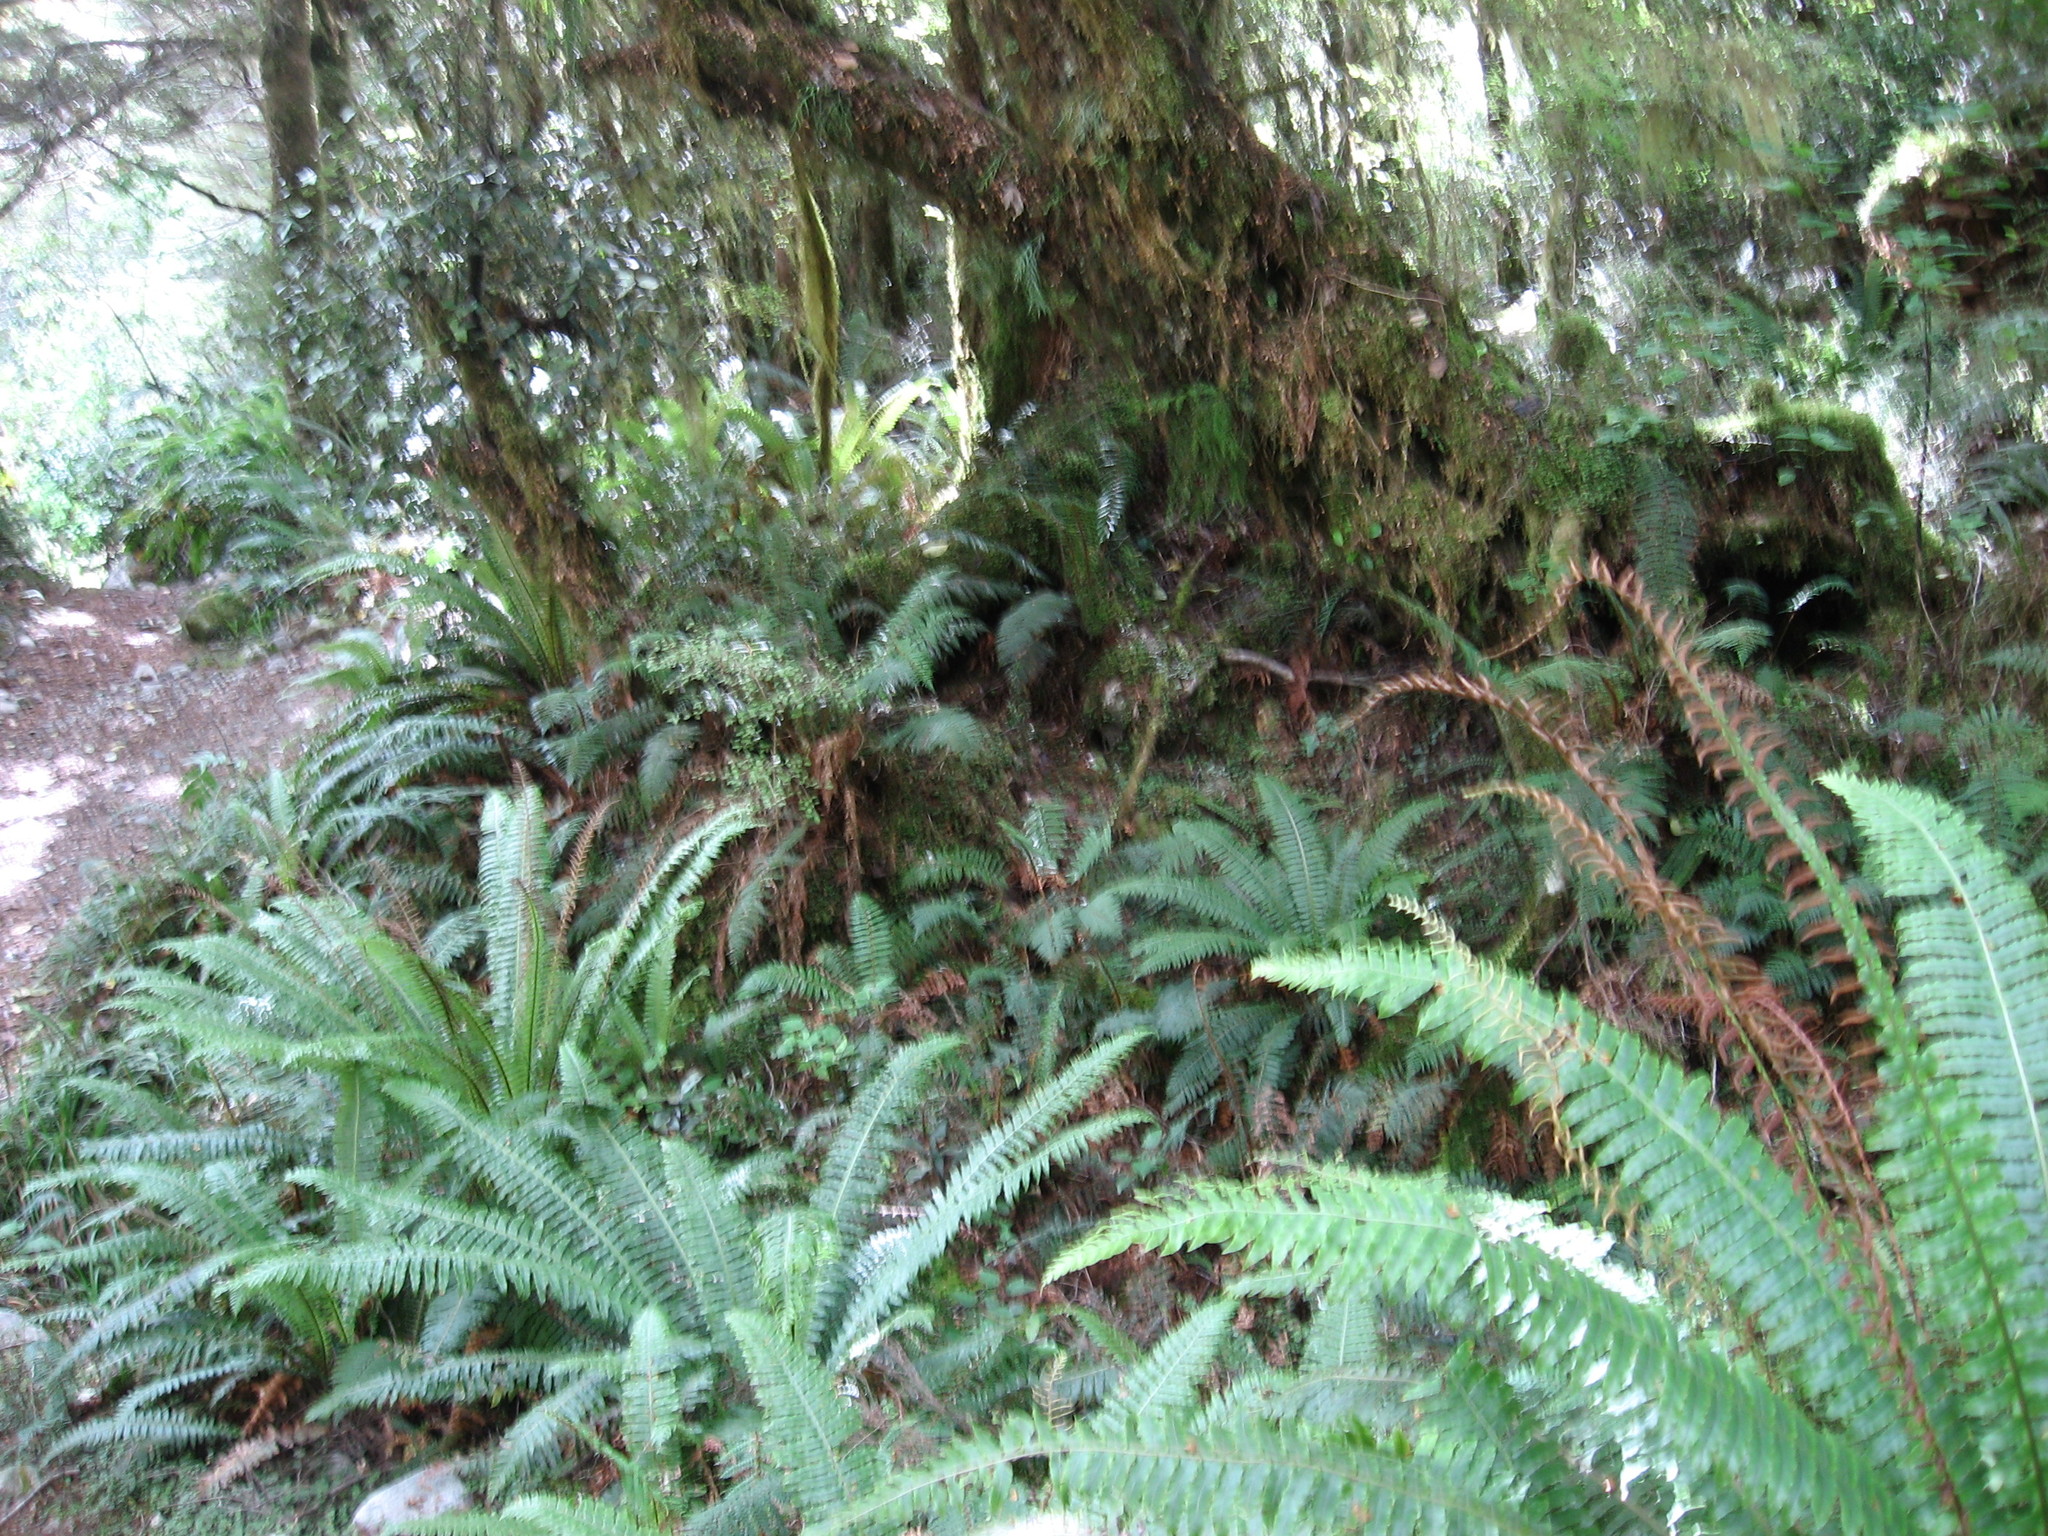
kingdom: Plantae
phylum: Tracheophyta
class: Polypodiopsida
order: Polypodiales
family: Blechnaceae
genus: Lomaria
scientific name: Lomaria discolor
